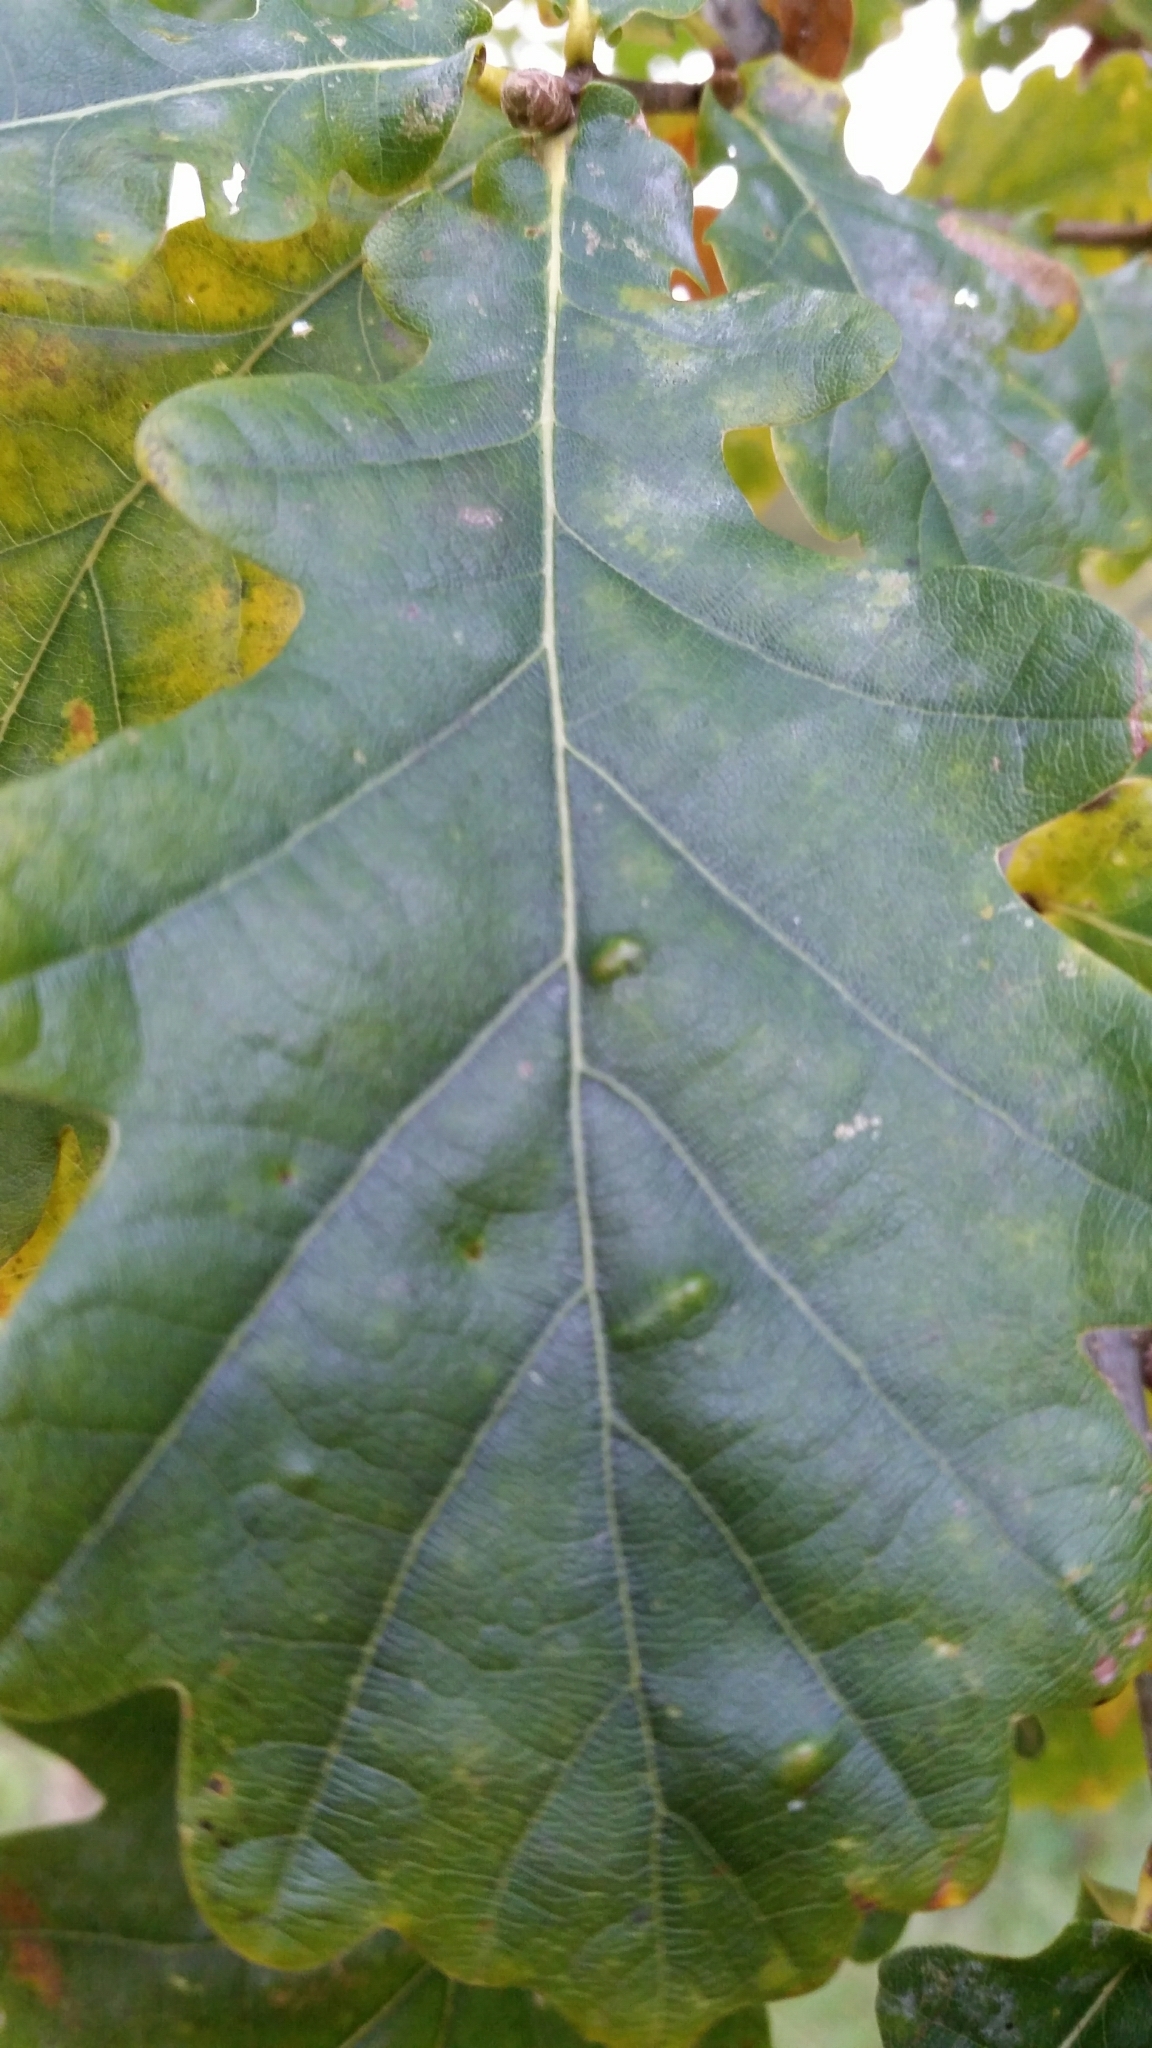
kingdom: Animalia
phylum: Arthropoda
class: Insecta
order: Hemiptera
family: Triozidae
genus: Trioza
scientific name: Trioza remota
